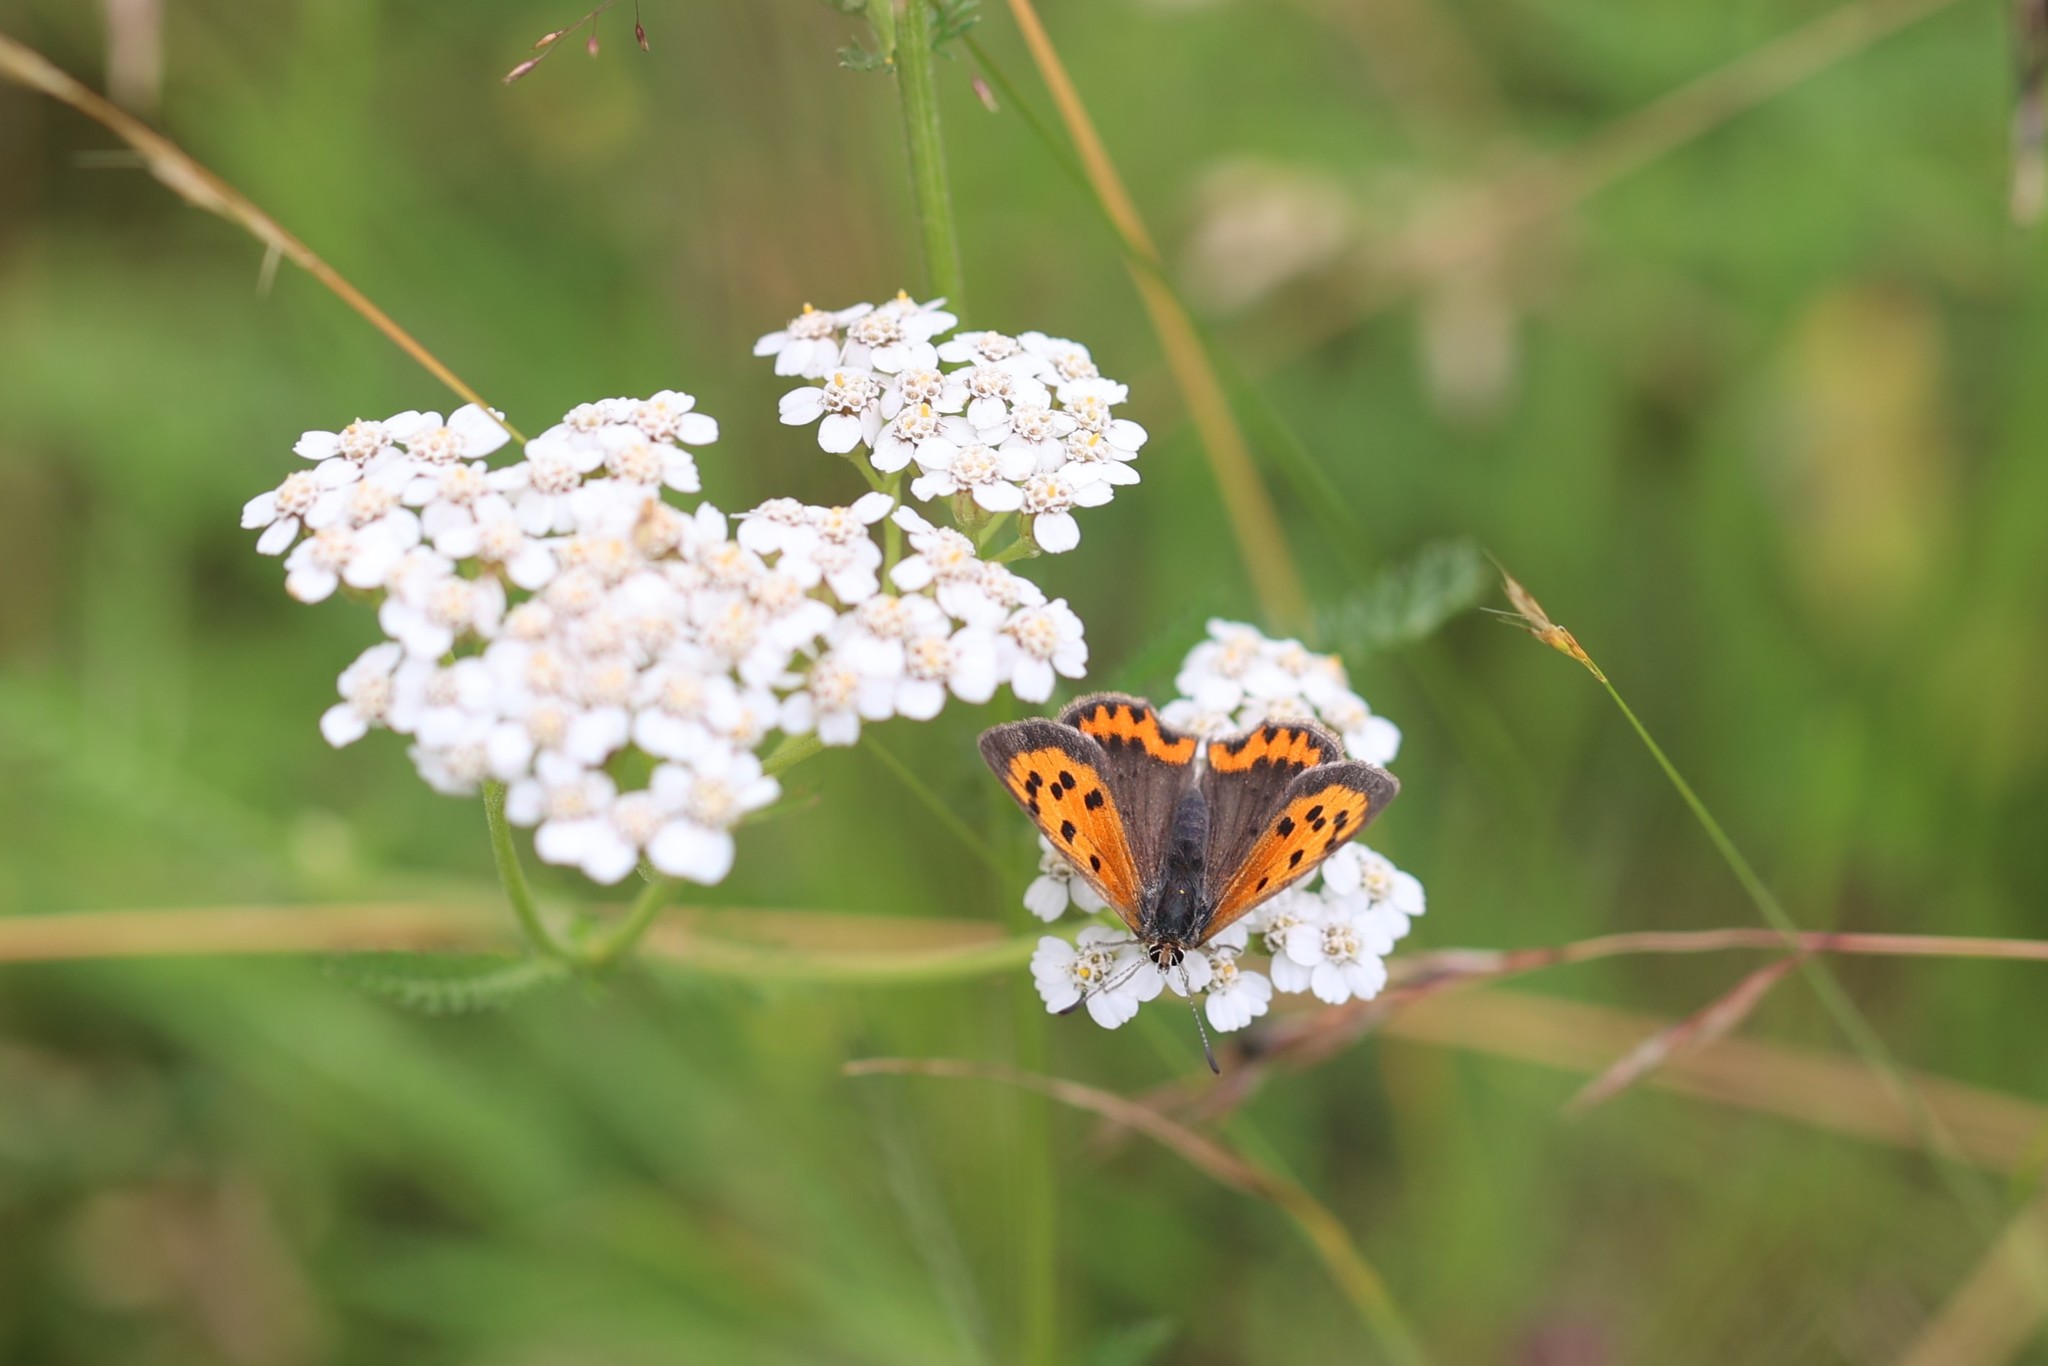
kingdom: Animalia
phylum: Arthropoda
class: Insecta
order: Lepidoptera
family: Lycaenidae
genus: Lycaena
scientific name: Lycaena phlaeas
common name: Small copper
